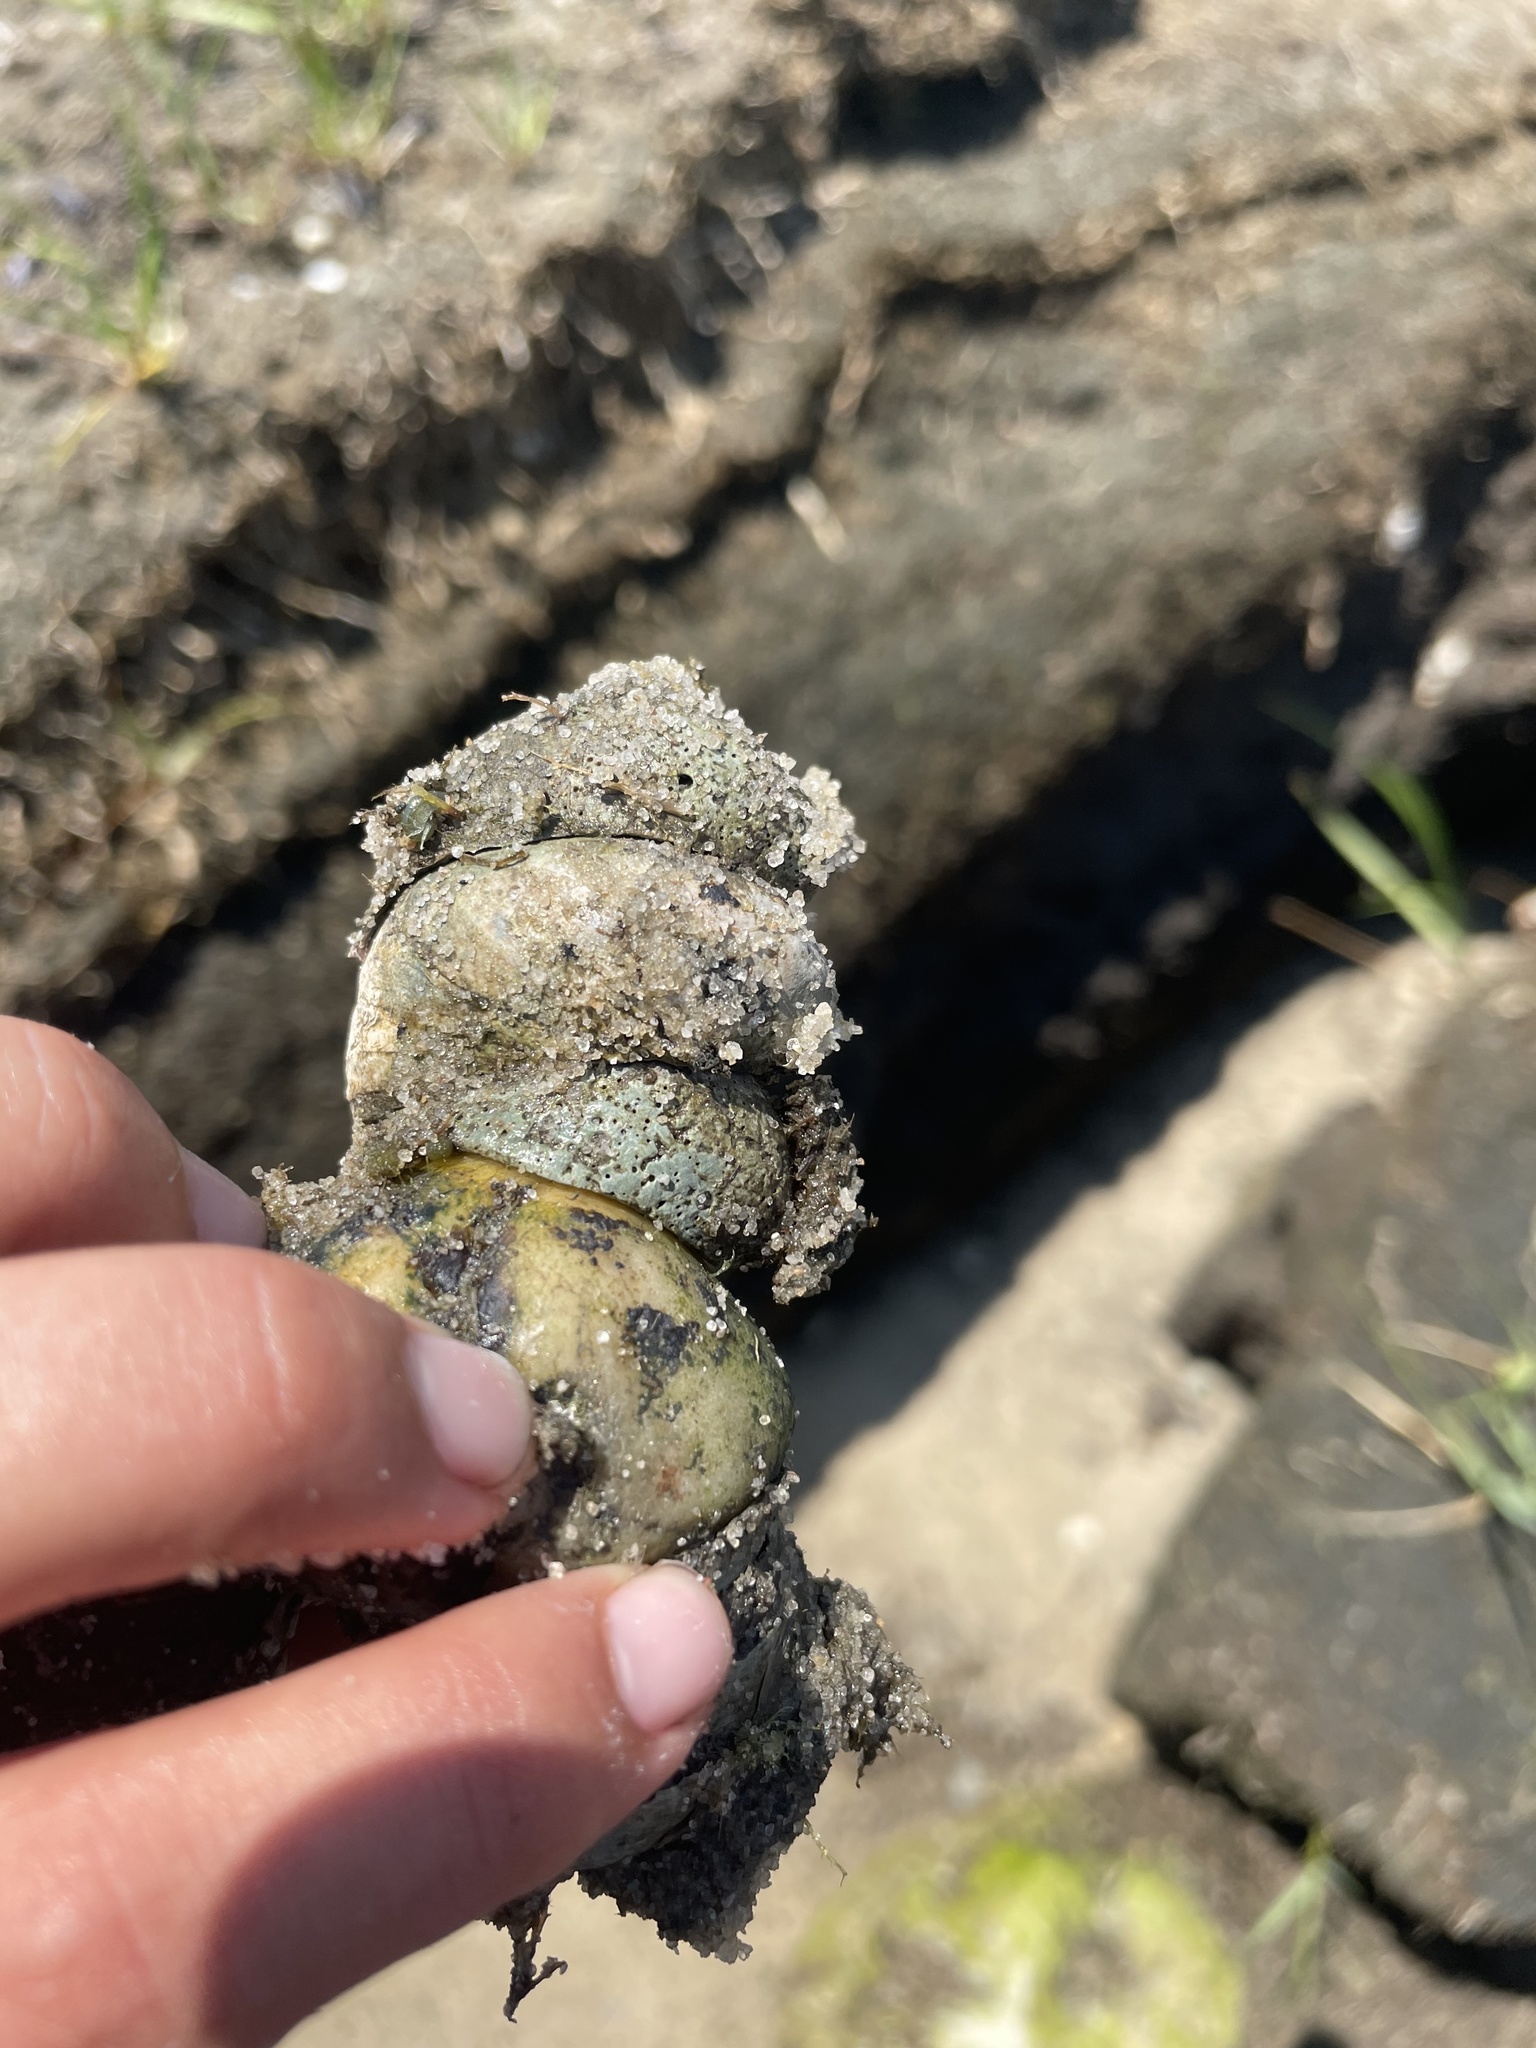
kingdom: Animalia
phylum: Mollusca
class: Gastropoda
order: Littorinimorpha
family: Calyptraeidae
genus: Crepidula
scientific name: Crepidula fornicata
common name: Slipper limpet
